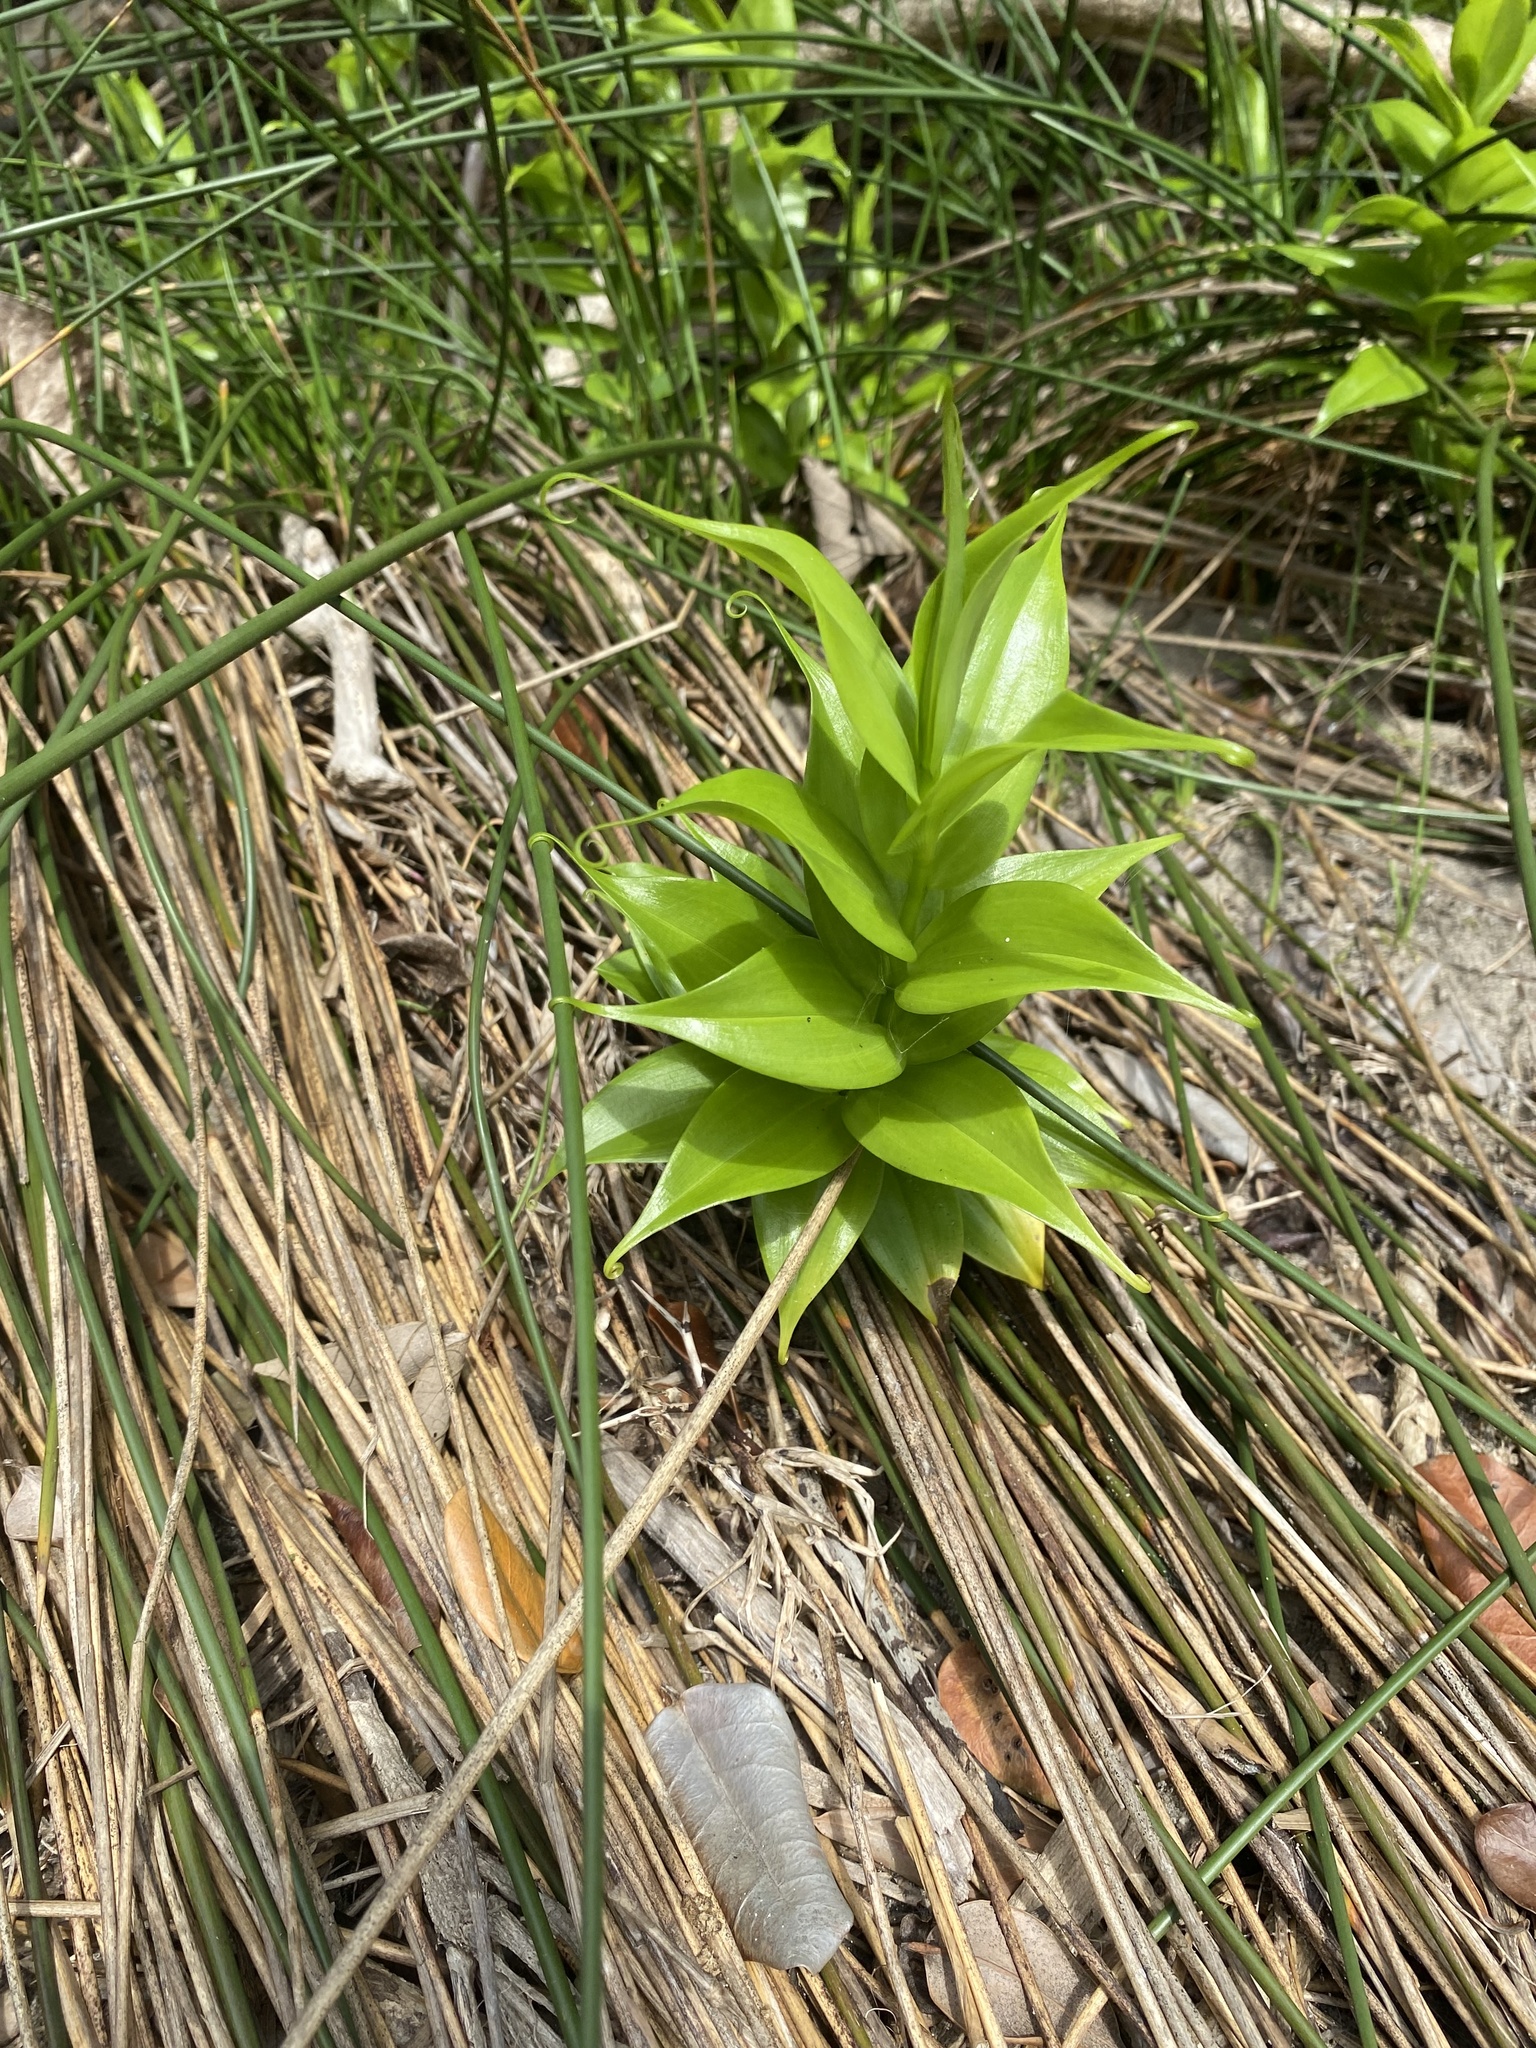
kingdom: Plantae
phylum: Tracheophyta
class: Liliopsida
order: Liliales
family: Colchicaceae
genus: Gloriosa
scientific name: Gloriosa superba
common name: Flame lily
